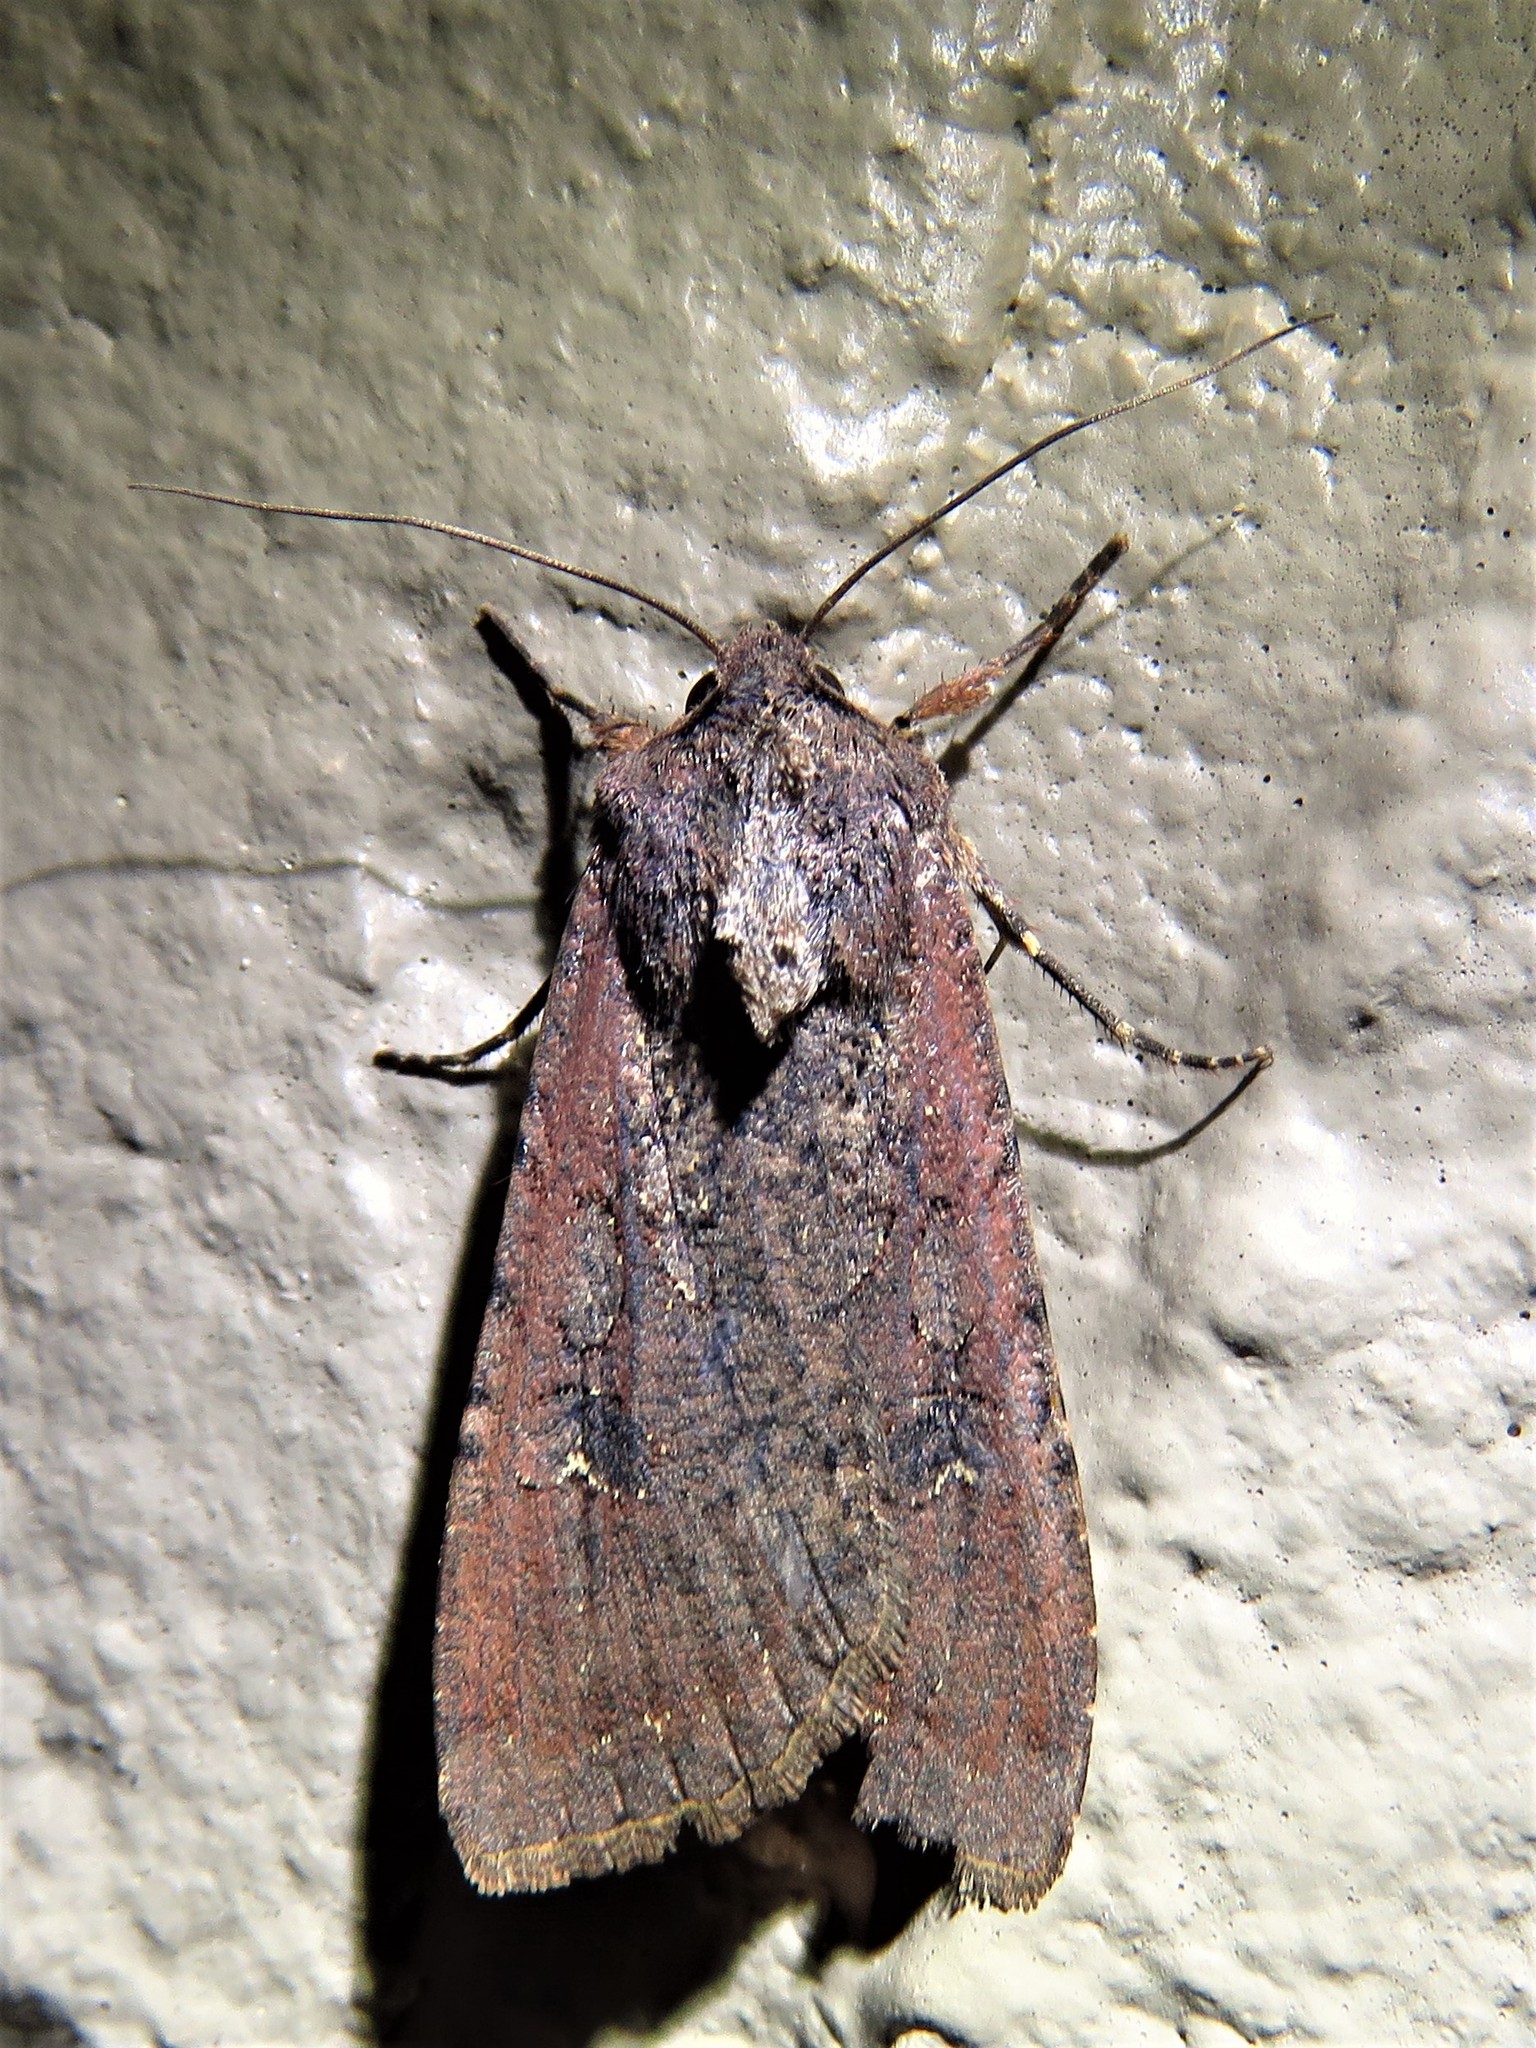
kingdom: Animalia
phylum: Arthropoda
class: Insecta
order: Lepidoptera
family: Noctuidae
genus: Peridroma
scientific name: Peridroma saucia
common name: Pearly underwing
